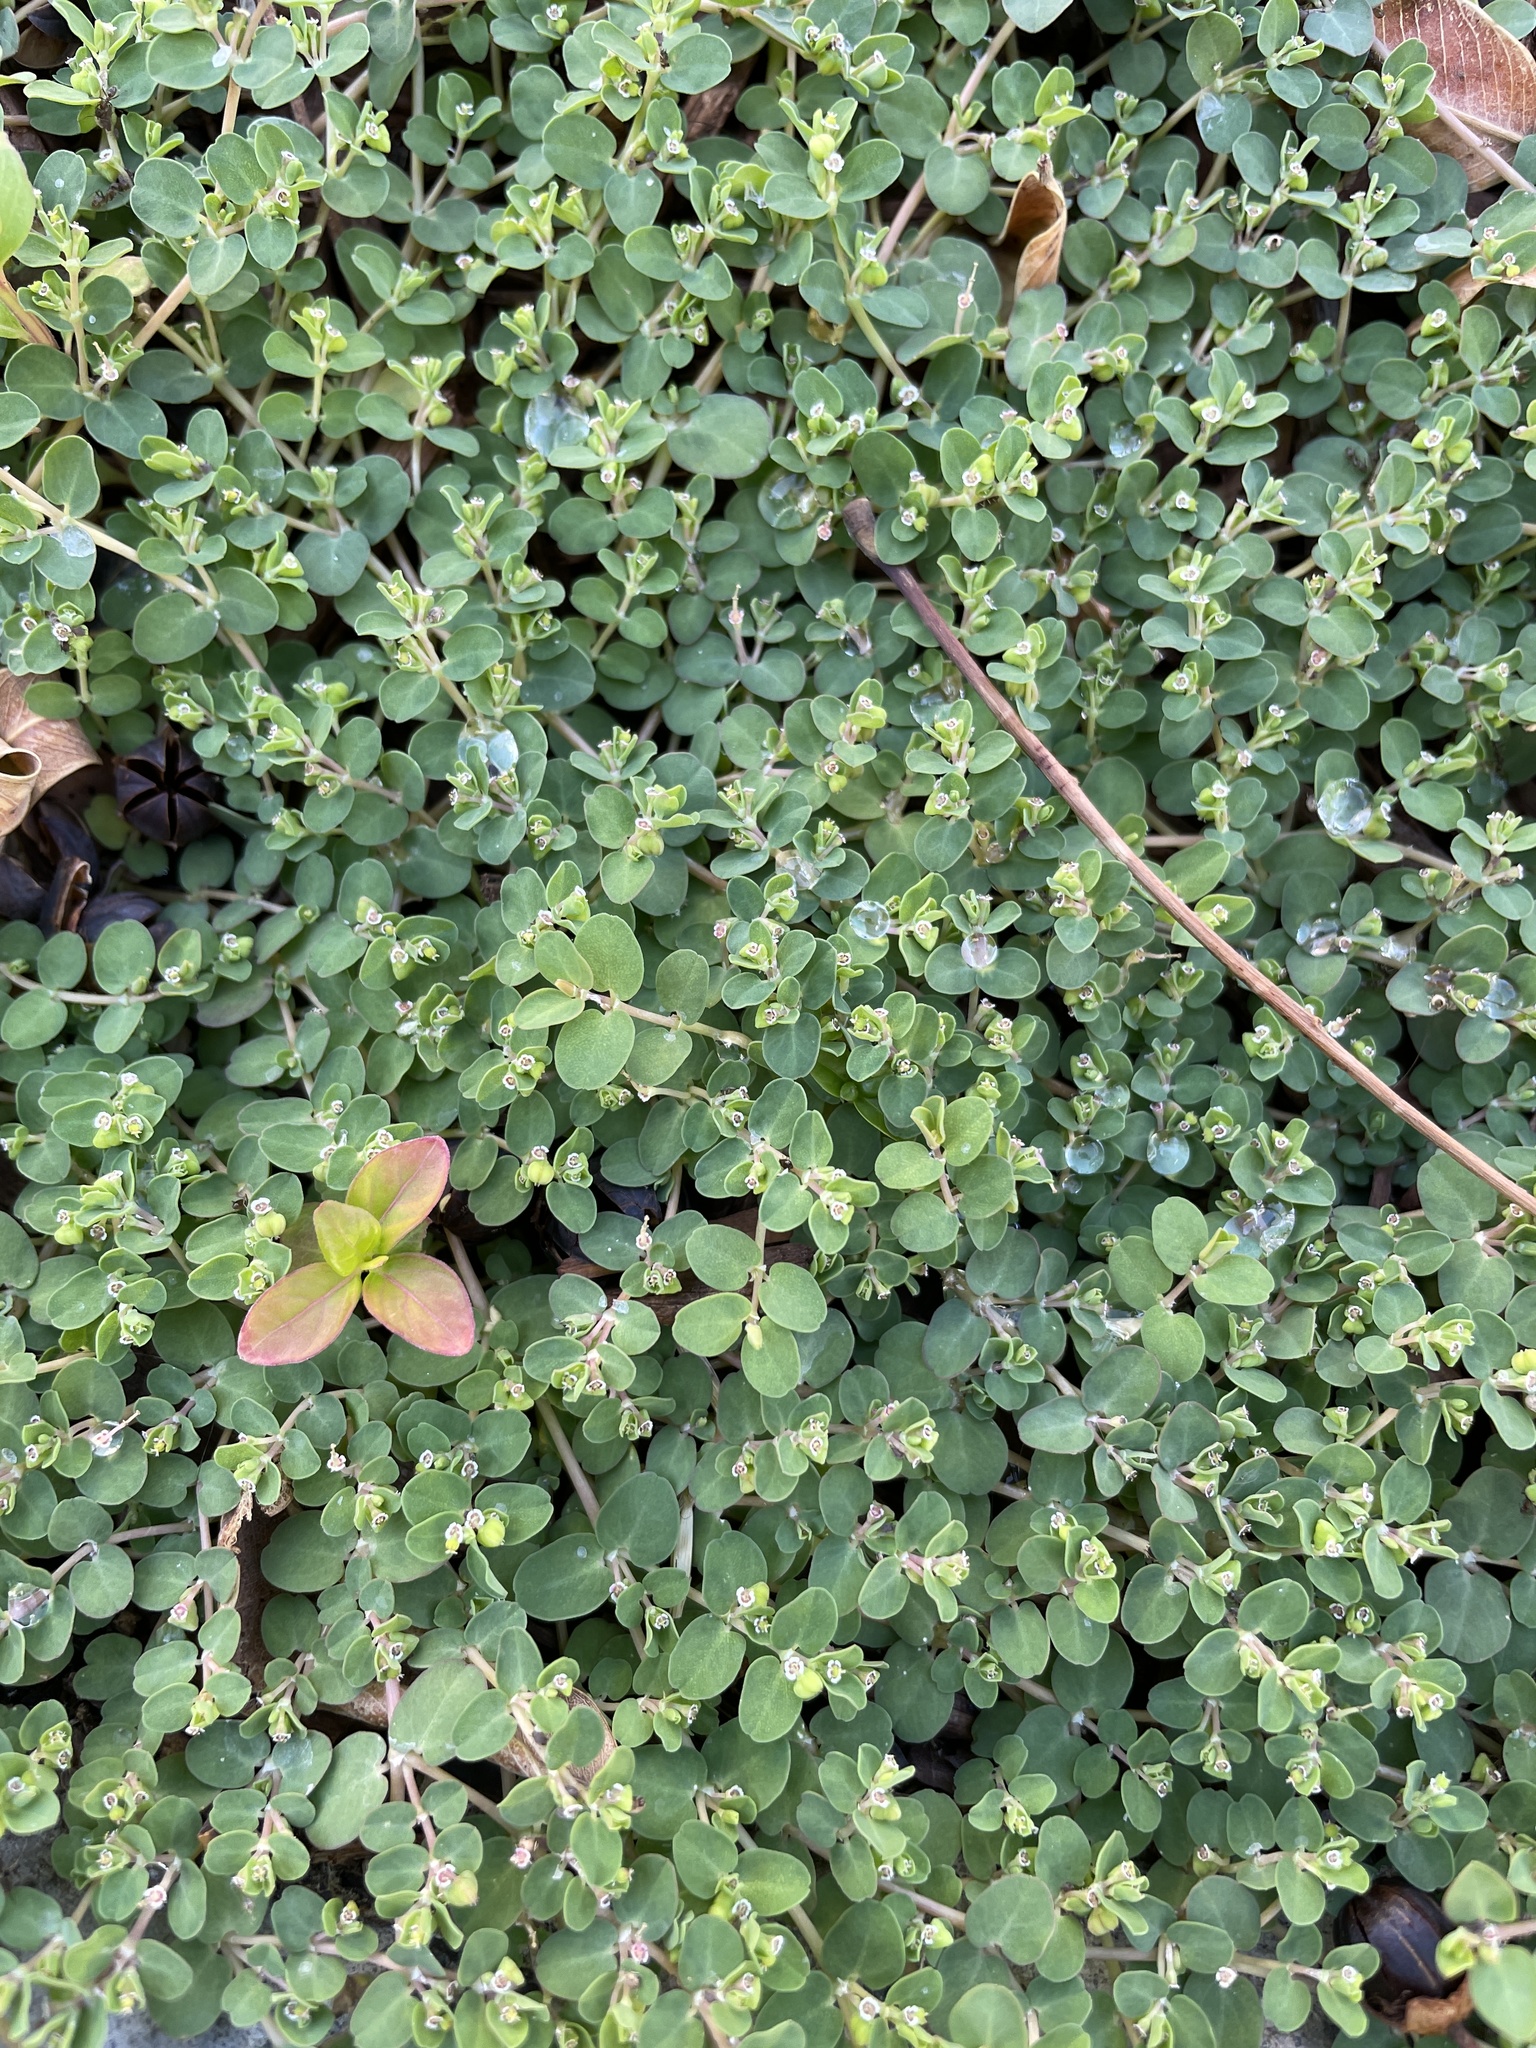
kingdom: Plantae
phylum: Tracheophyta
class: Magnoliopsida
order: Malpighiales
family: Euphorbiaceae
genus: Euphorbia
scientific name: Euphorbia serpens
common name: Matted sandmat
